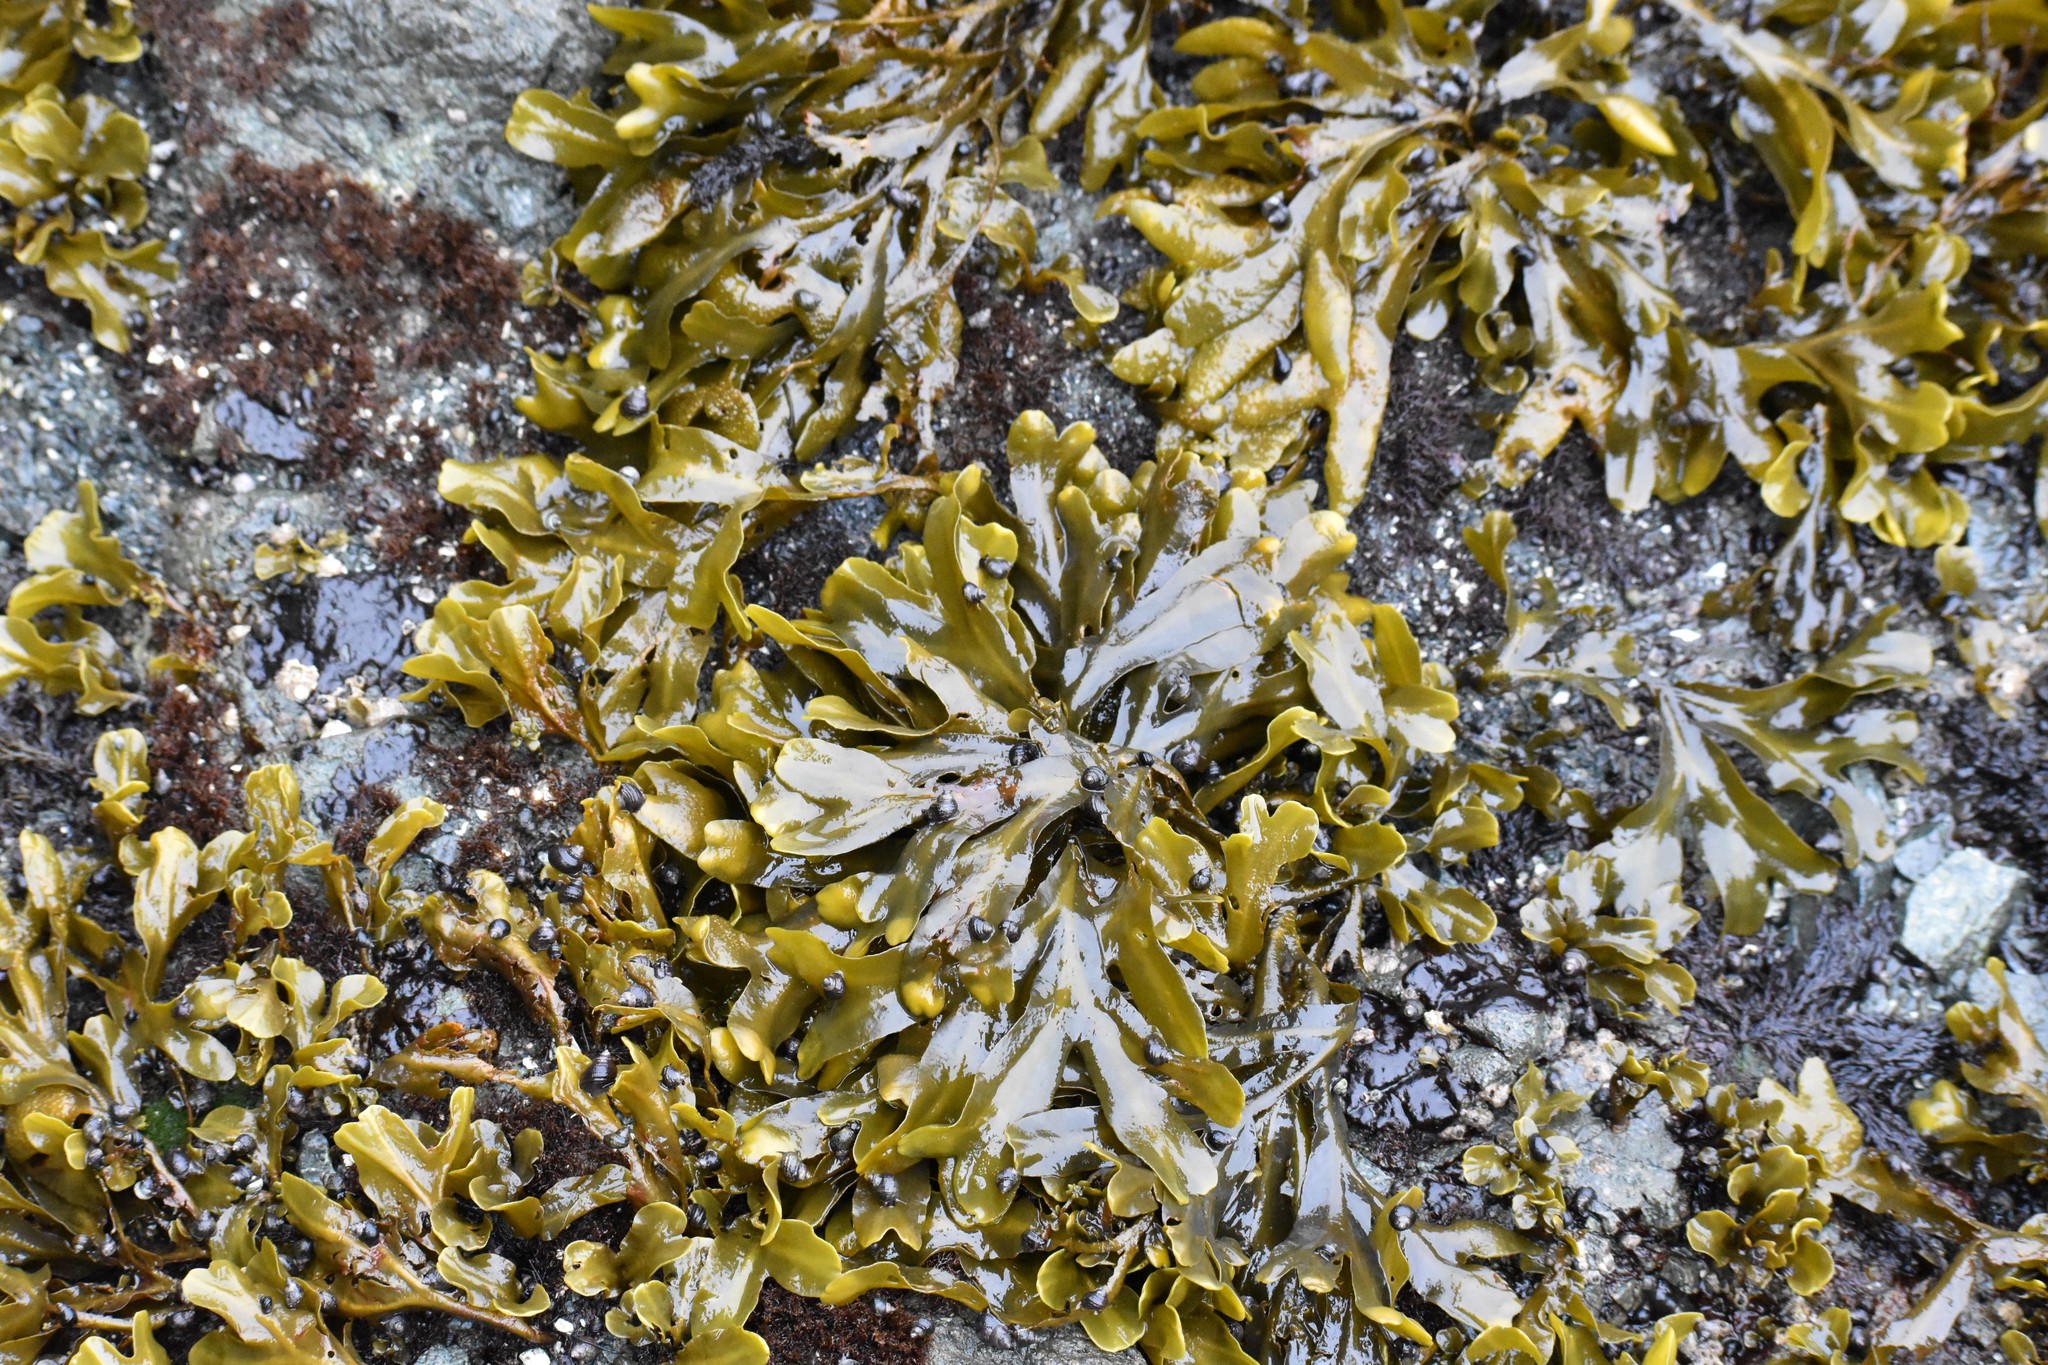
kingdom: Chromista
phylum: Ochrophyta
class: Phaeophyceae
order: Fucales
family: Fucaceae
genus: Fucus
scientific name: Fucus distichus
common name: Rockweed
